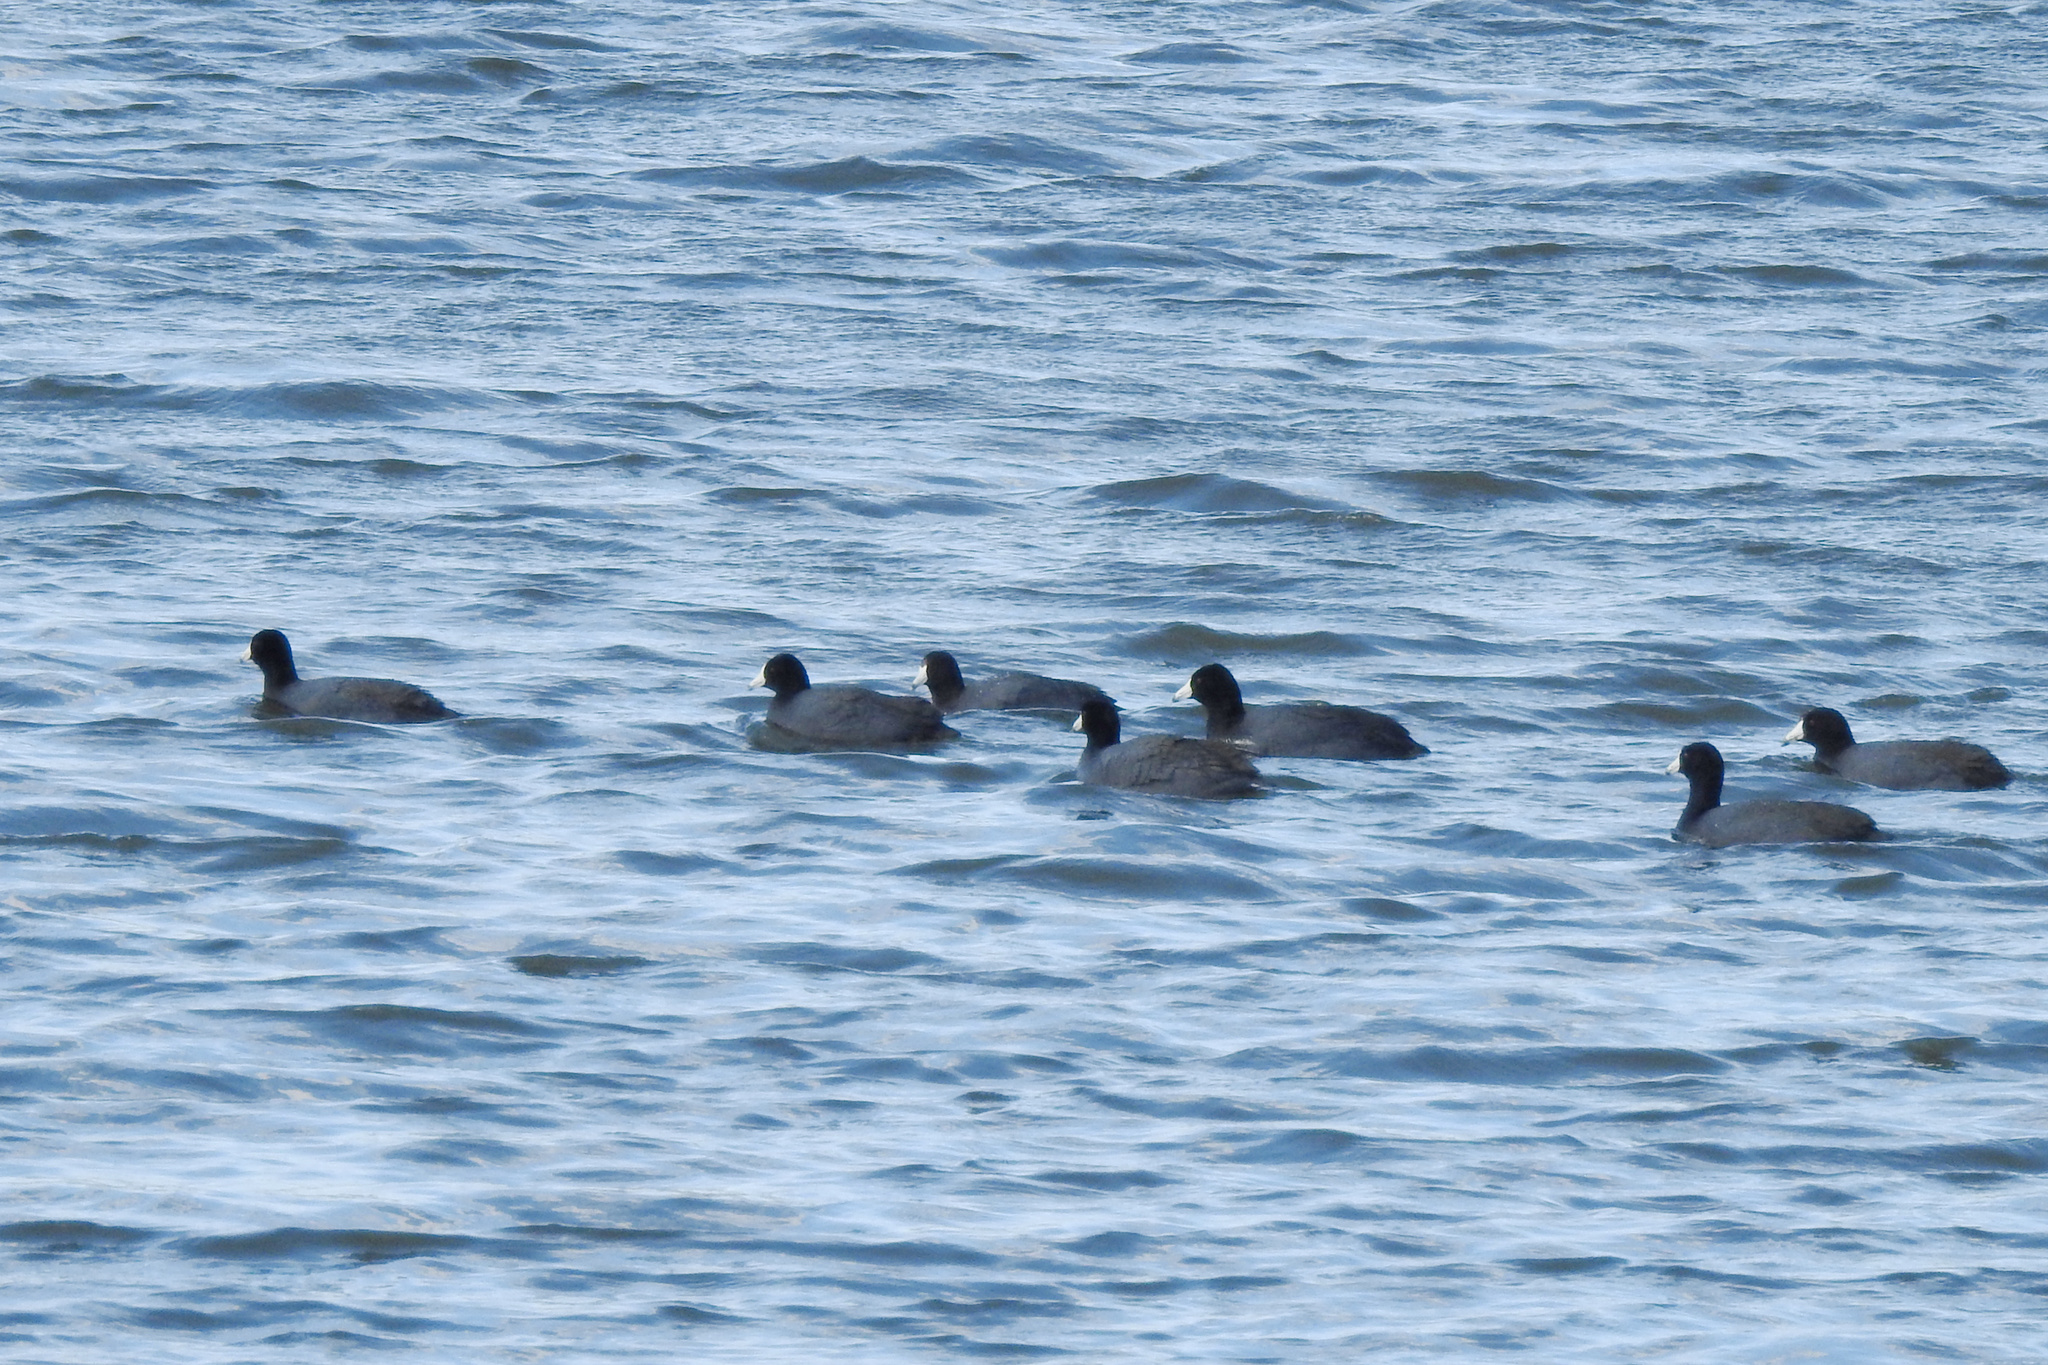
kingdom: Animalia
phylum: Chordata
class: Aves
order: Gruiformes
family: Rallidae
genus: Fulica
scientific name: Fulica americana
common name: American coot
